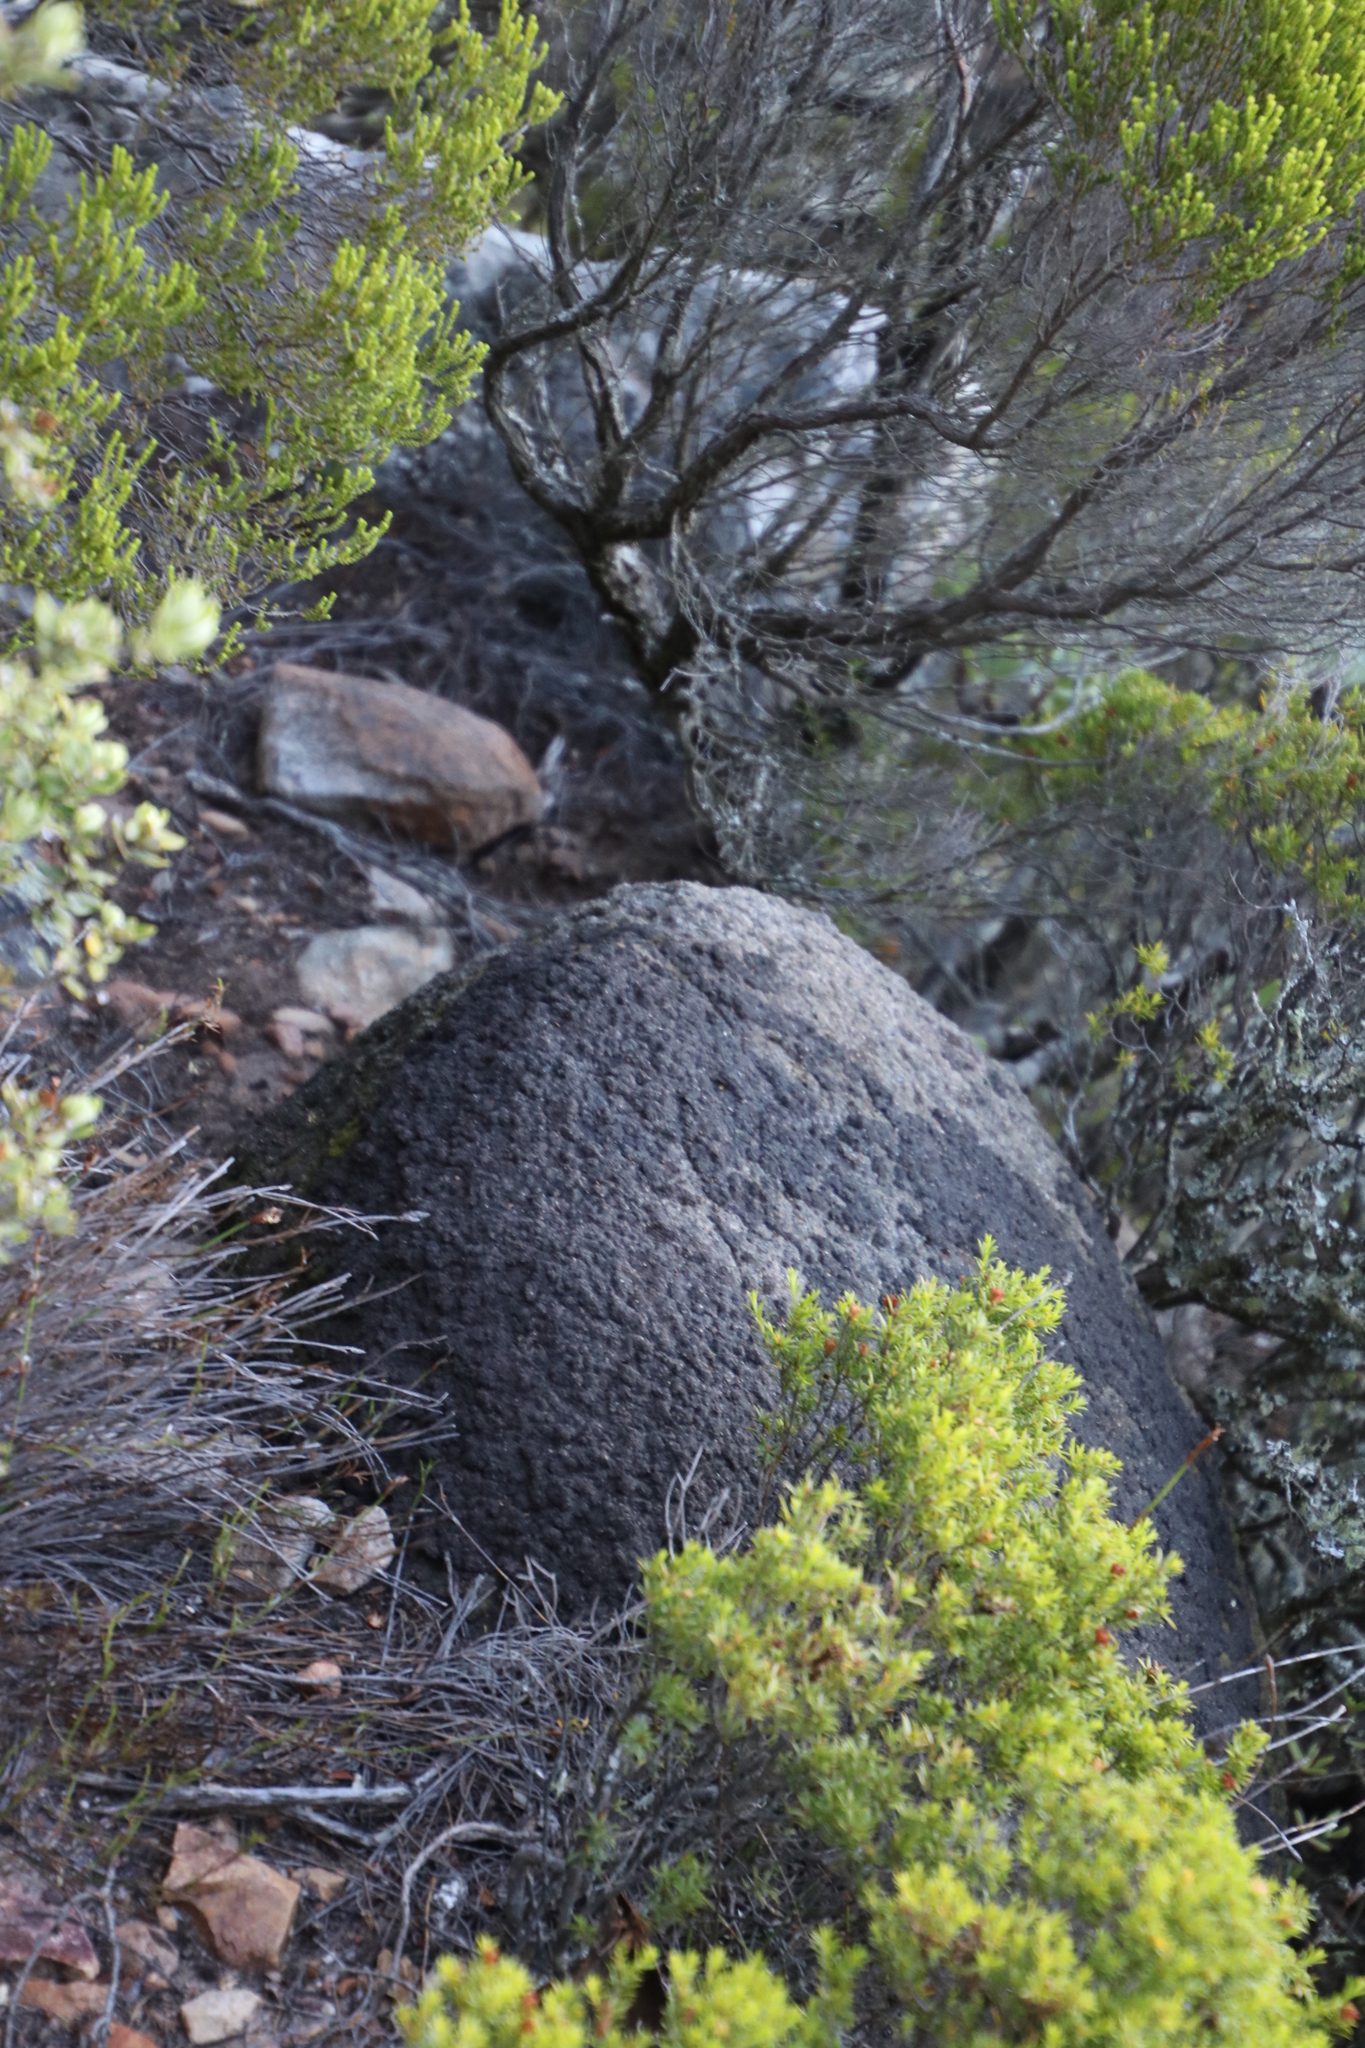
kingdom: Animalia
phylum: Arthropoda
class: Insecta
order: Blattodea
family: Termitidae
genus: Amitermes
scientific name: Amitermes hastatus
